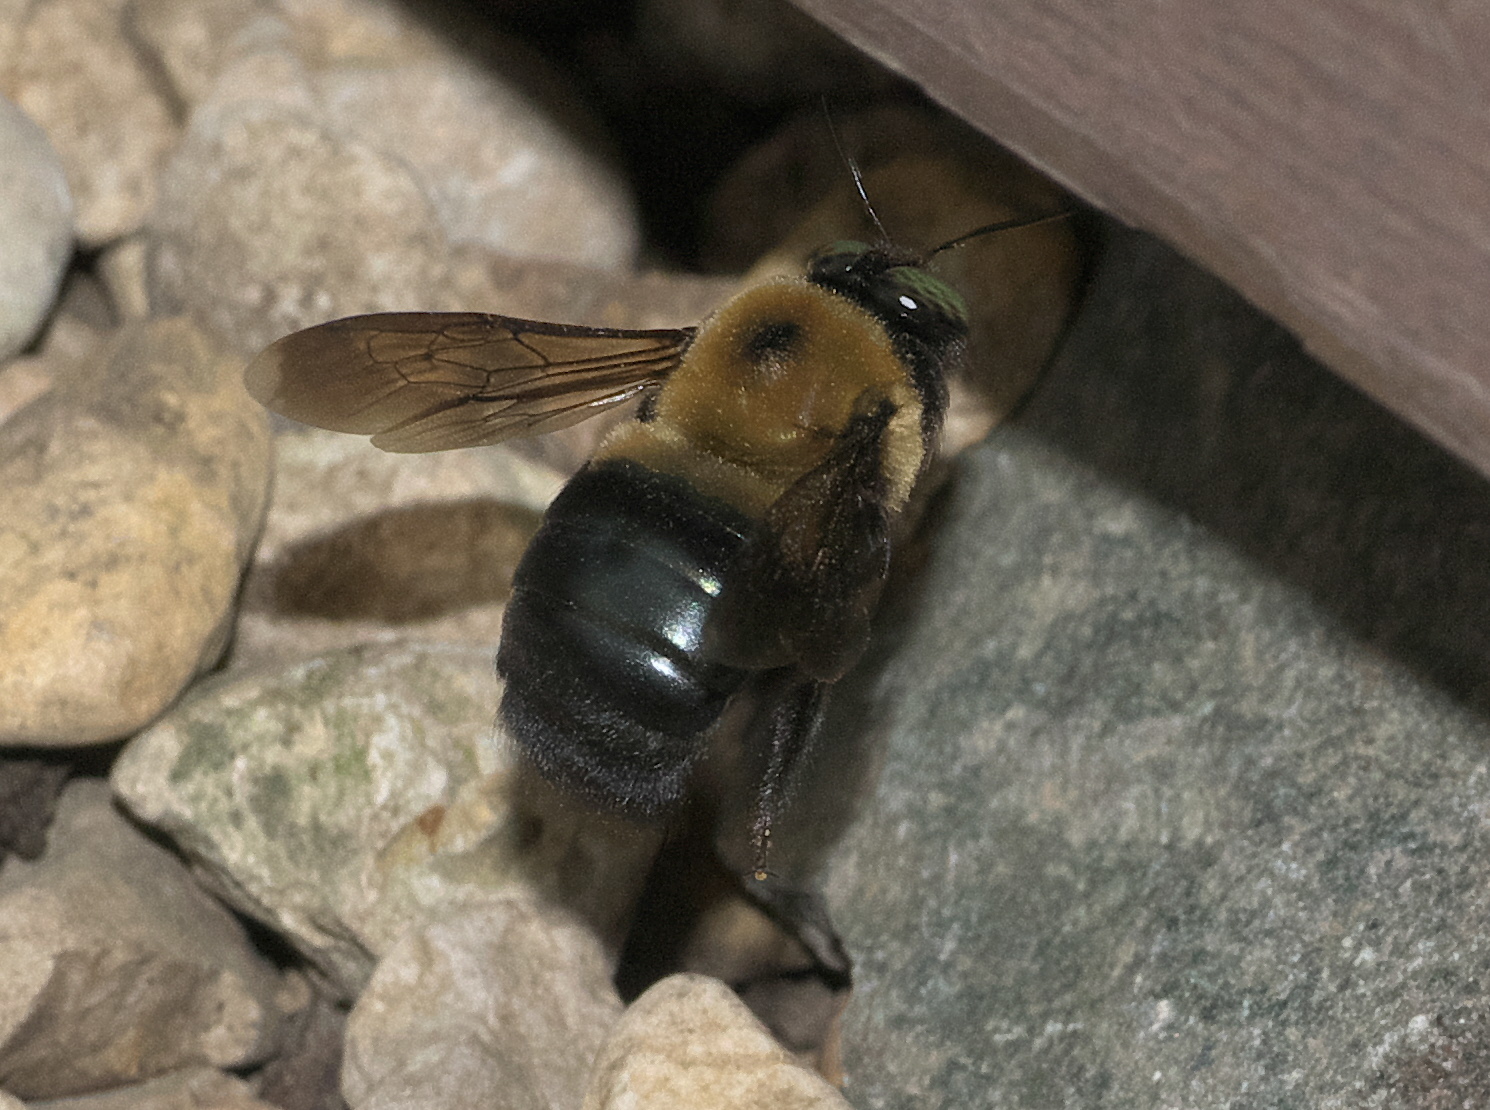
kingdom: Animalia
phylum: Arthropoda
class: Insecta
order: Hymenoptera
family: Apidae
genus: Xylocopa
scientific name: Xylocopa virginica
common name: Carpenter bee
